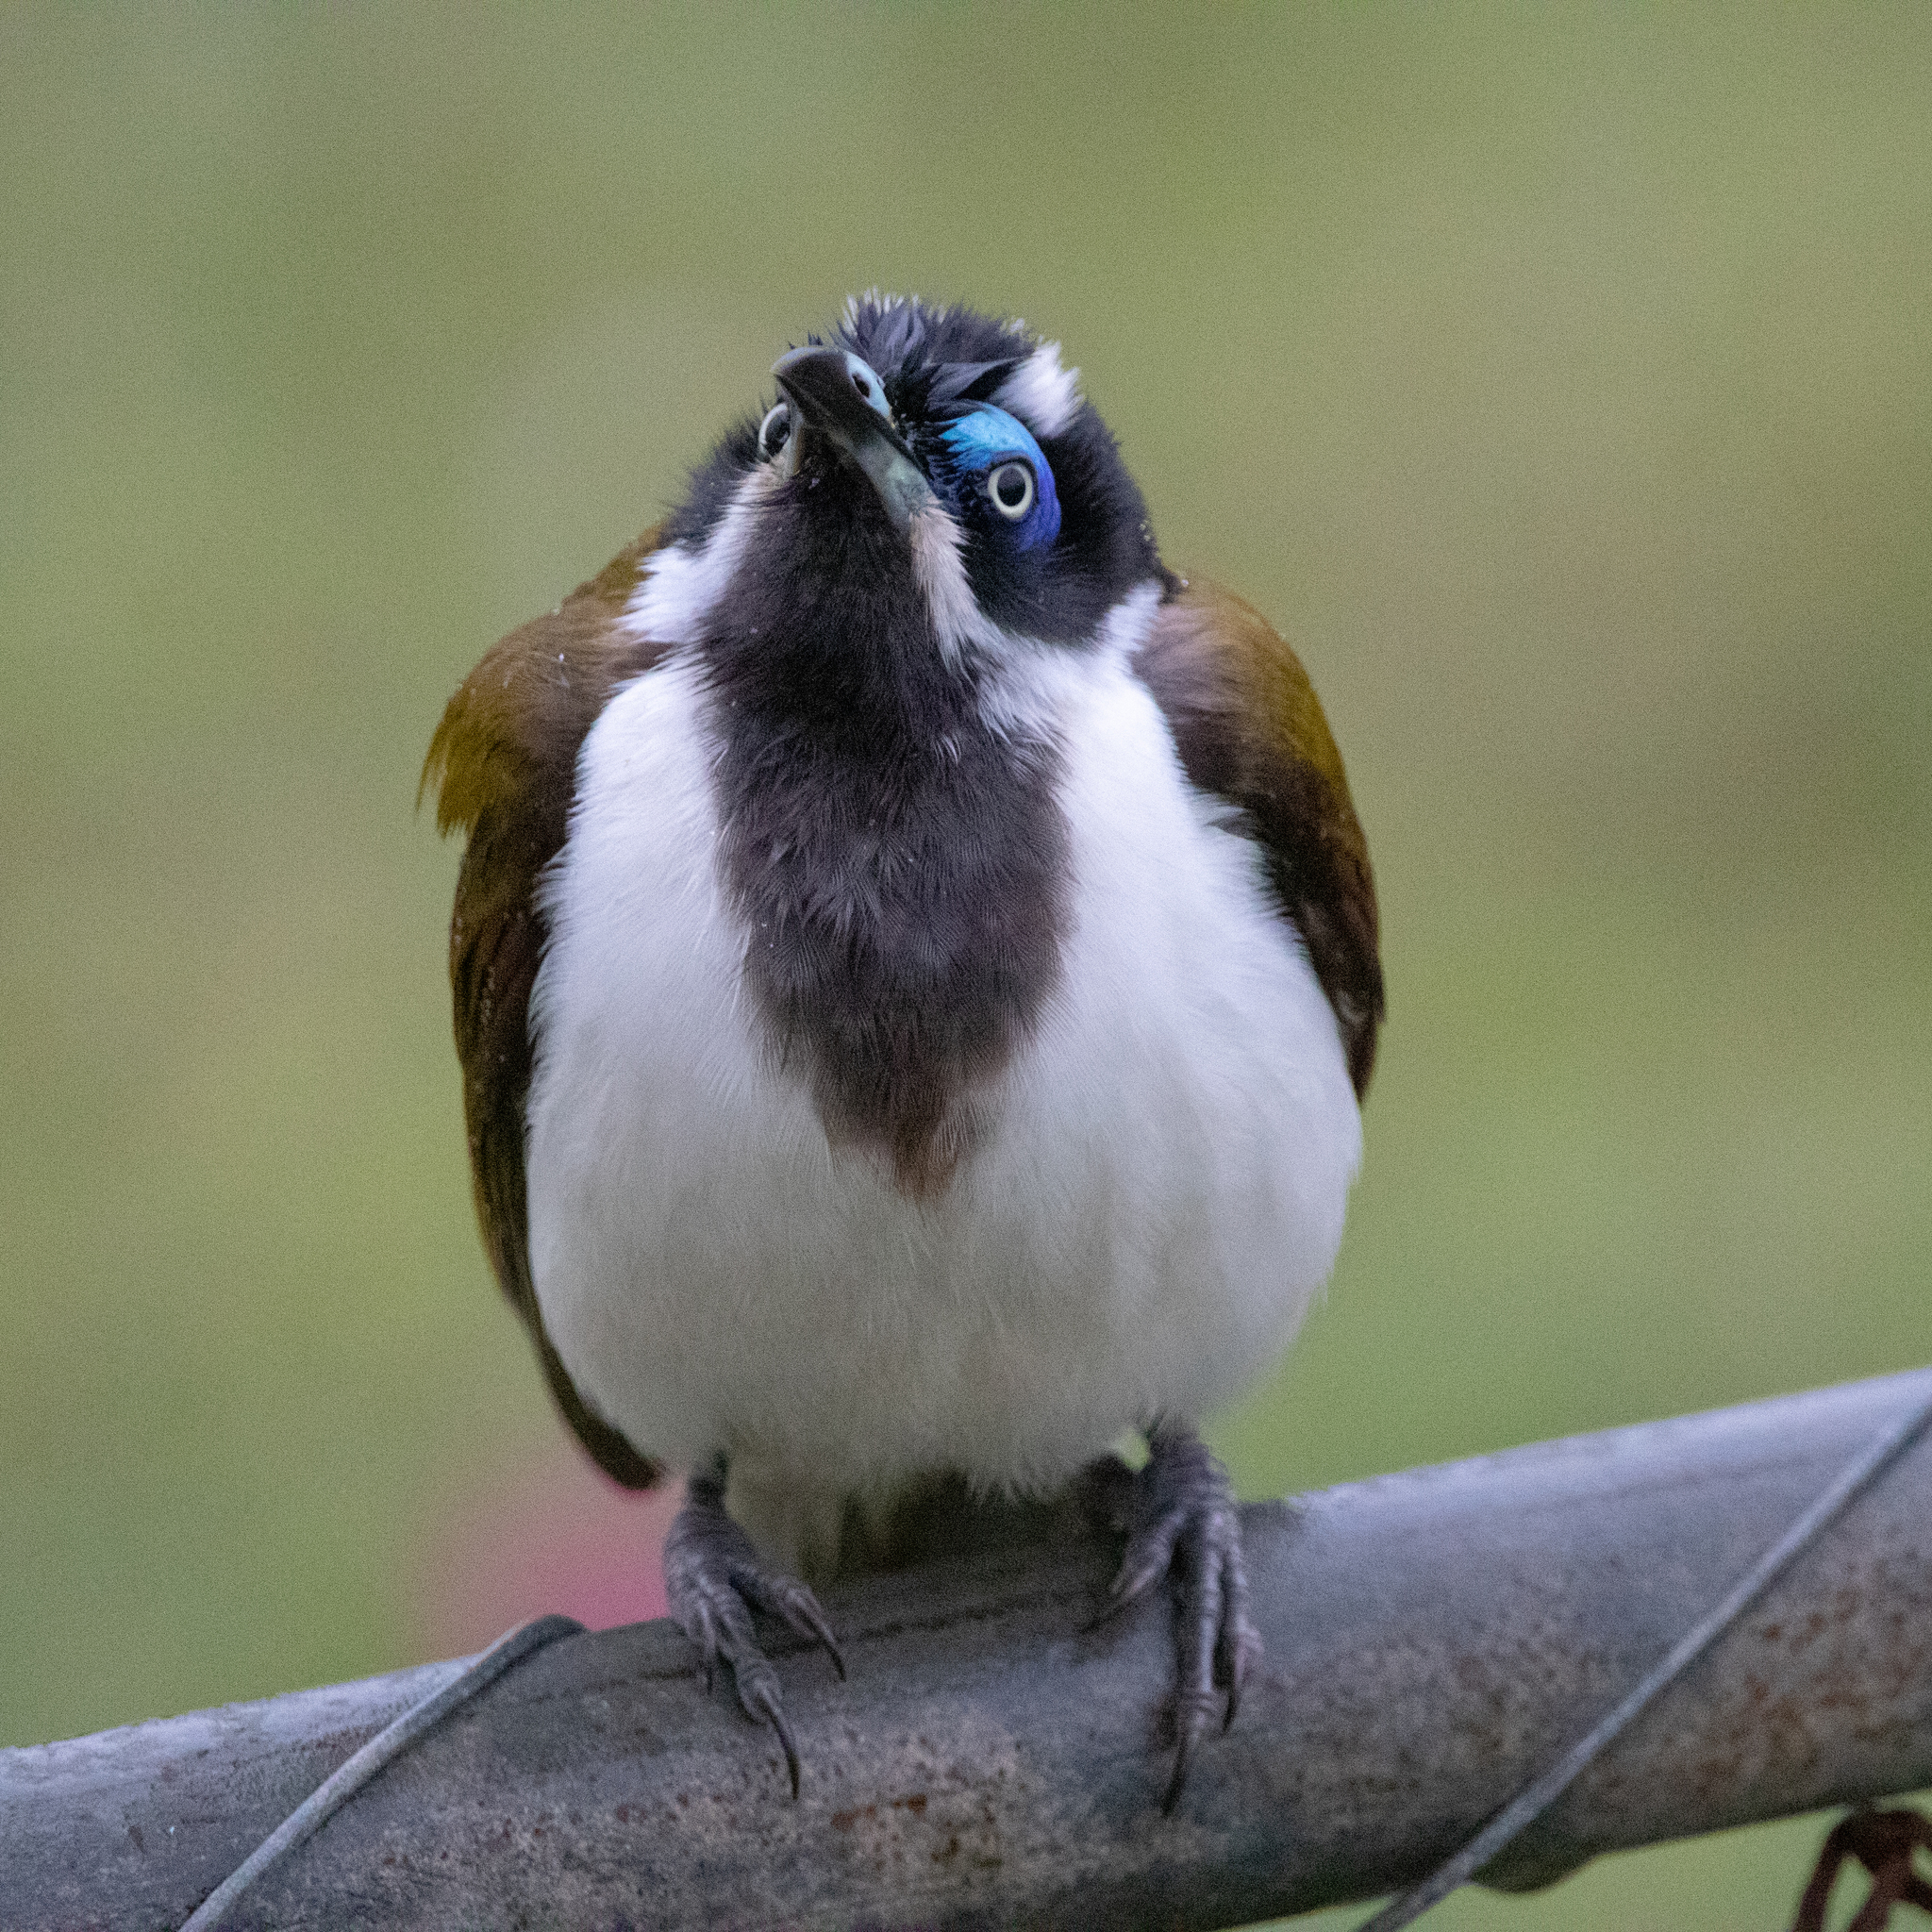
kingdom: Animalia
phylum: Chordata
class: Aves
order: Passeriformes
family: Meliphagidae
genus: Entomyzon
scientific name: Entomyzon cyanotis
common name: Blue-faced honeyeater
